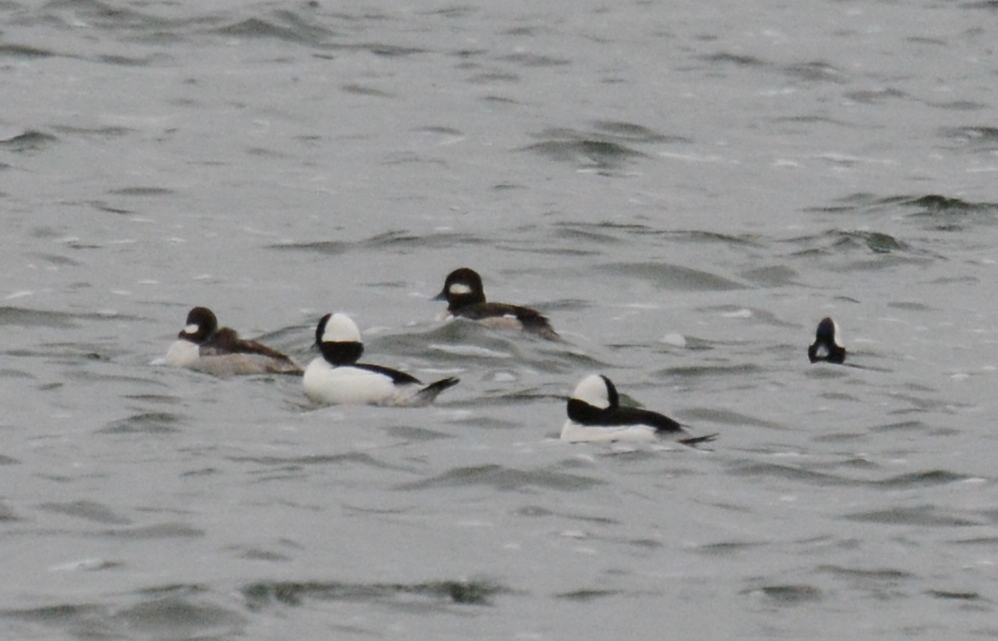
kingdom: Animalia
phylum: Chordata
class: Aves
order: Anseriformes
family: Anatidae
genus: Bucephala
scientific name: Bucephala albeola
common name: Bufflehead
